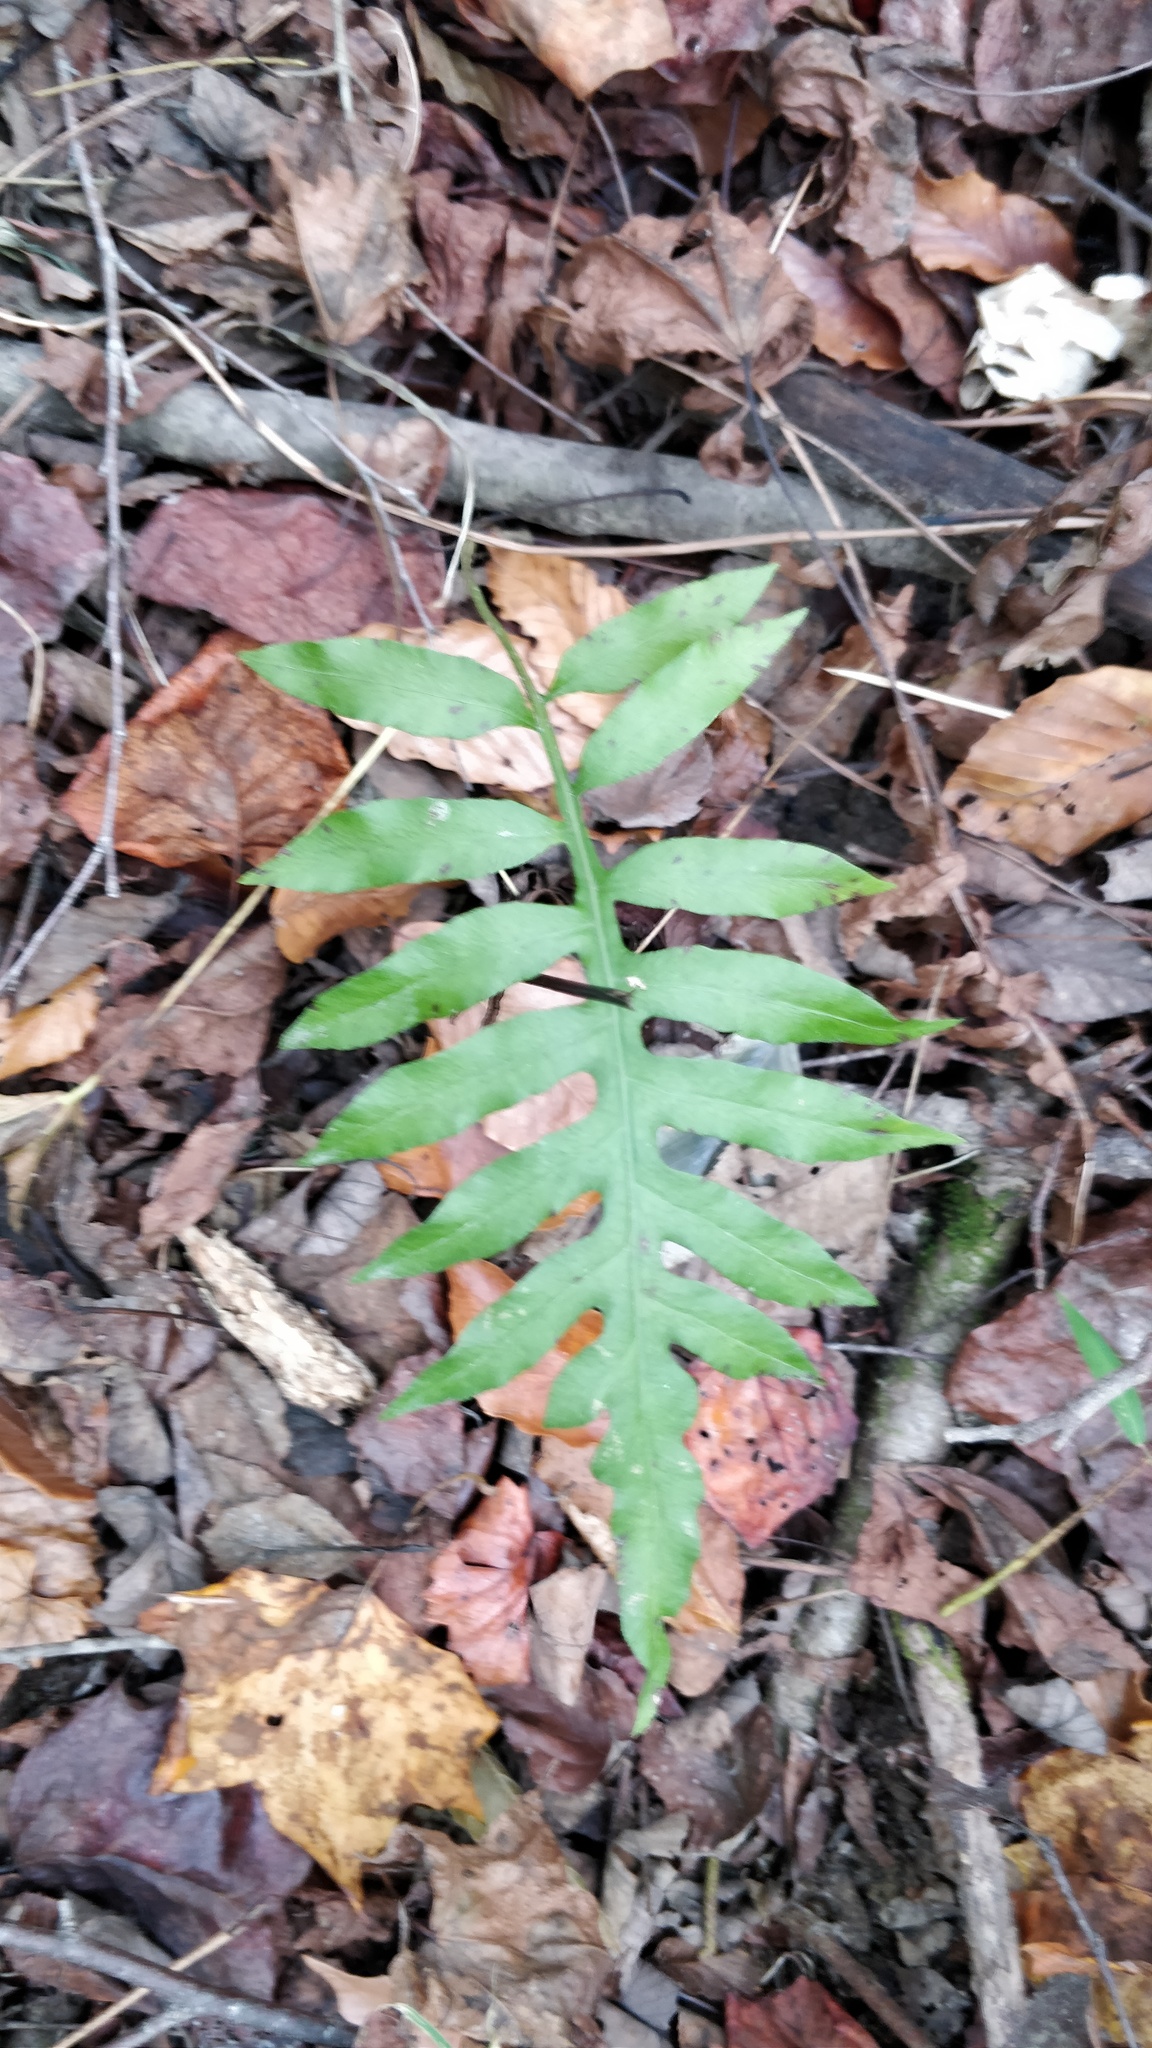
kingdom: Plantae
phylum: Tracheophyta
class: Polypodiopsida
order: Polypodiales
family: Blechnaceae
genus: Lorinseria
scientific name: Lorinseria areolata
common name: Dwarf chain fern
